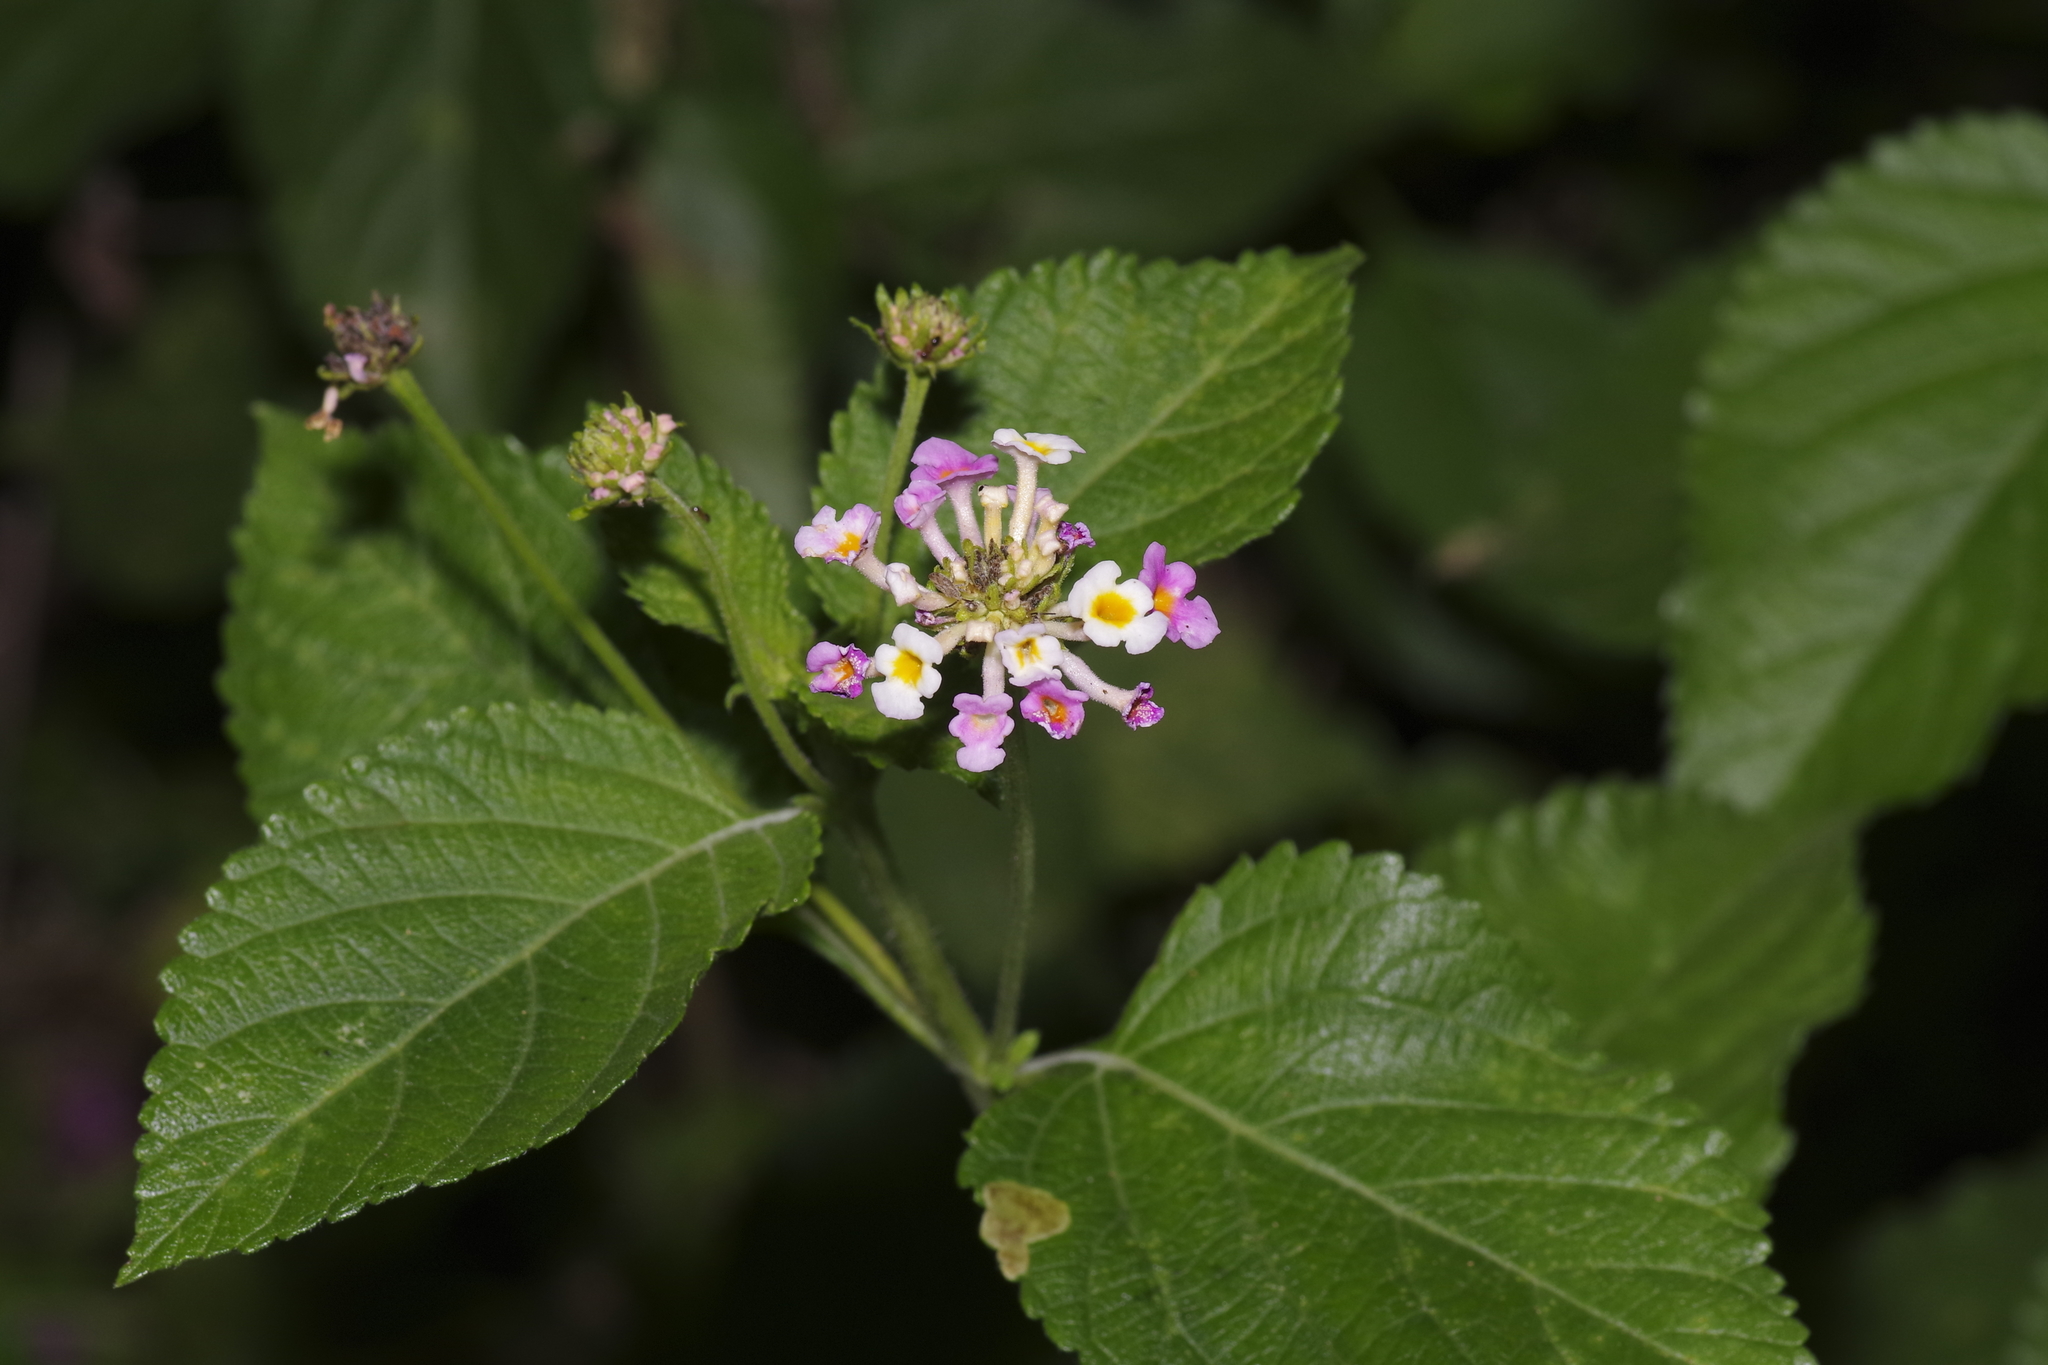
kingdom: Plantae
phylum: Tracheophyta
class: Magnoliopsida
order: Lamiales
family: Verbenaceae
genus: Lantana
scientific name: Lantana strigocamara
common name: Lantana
